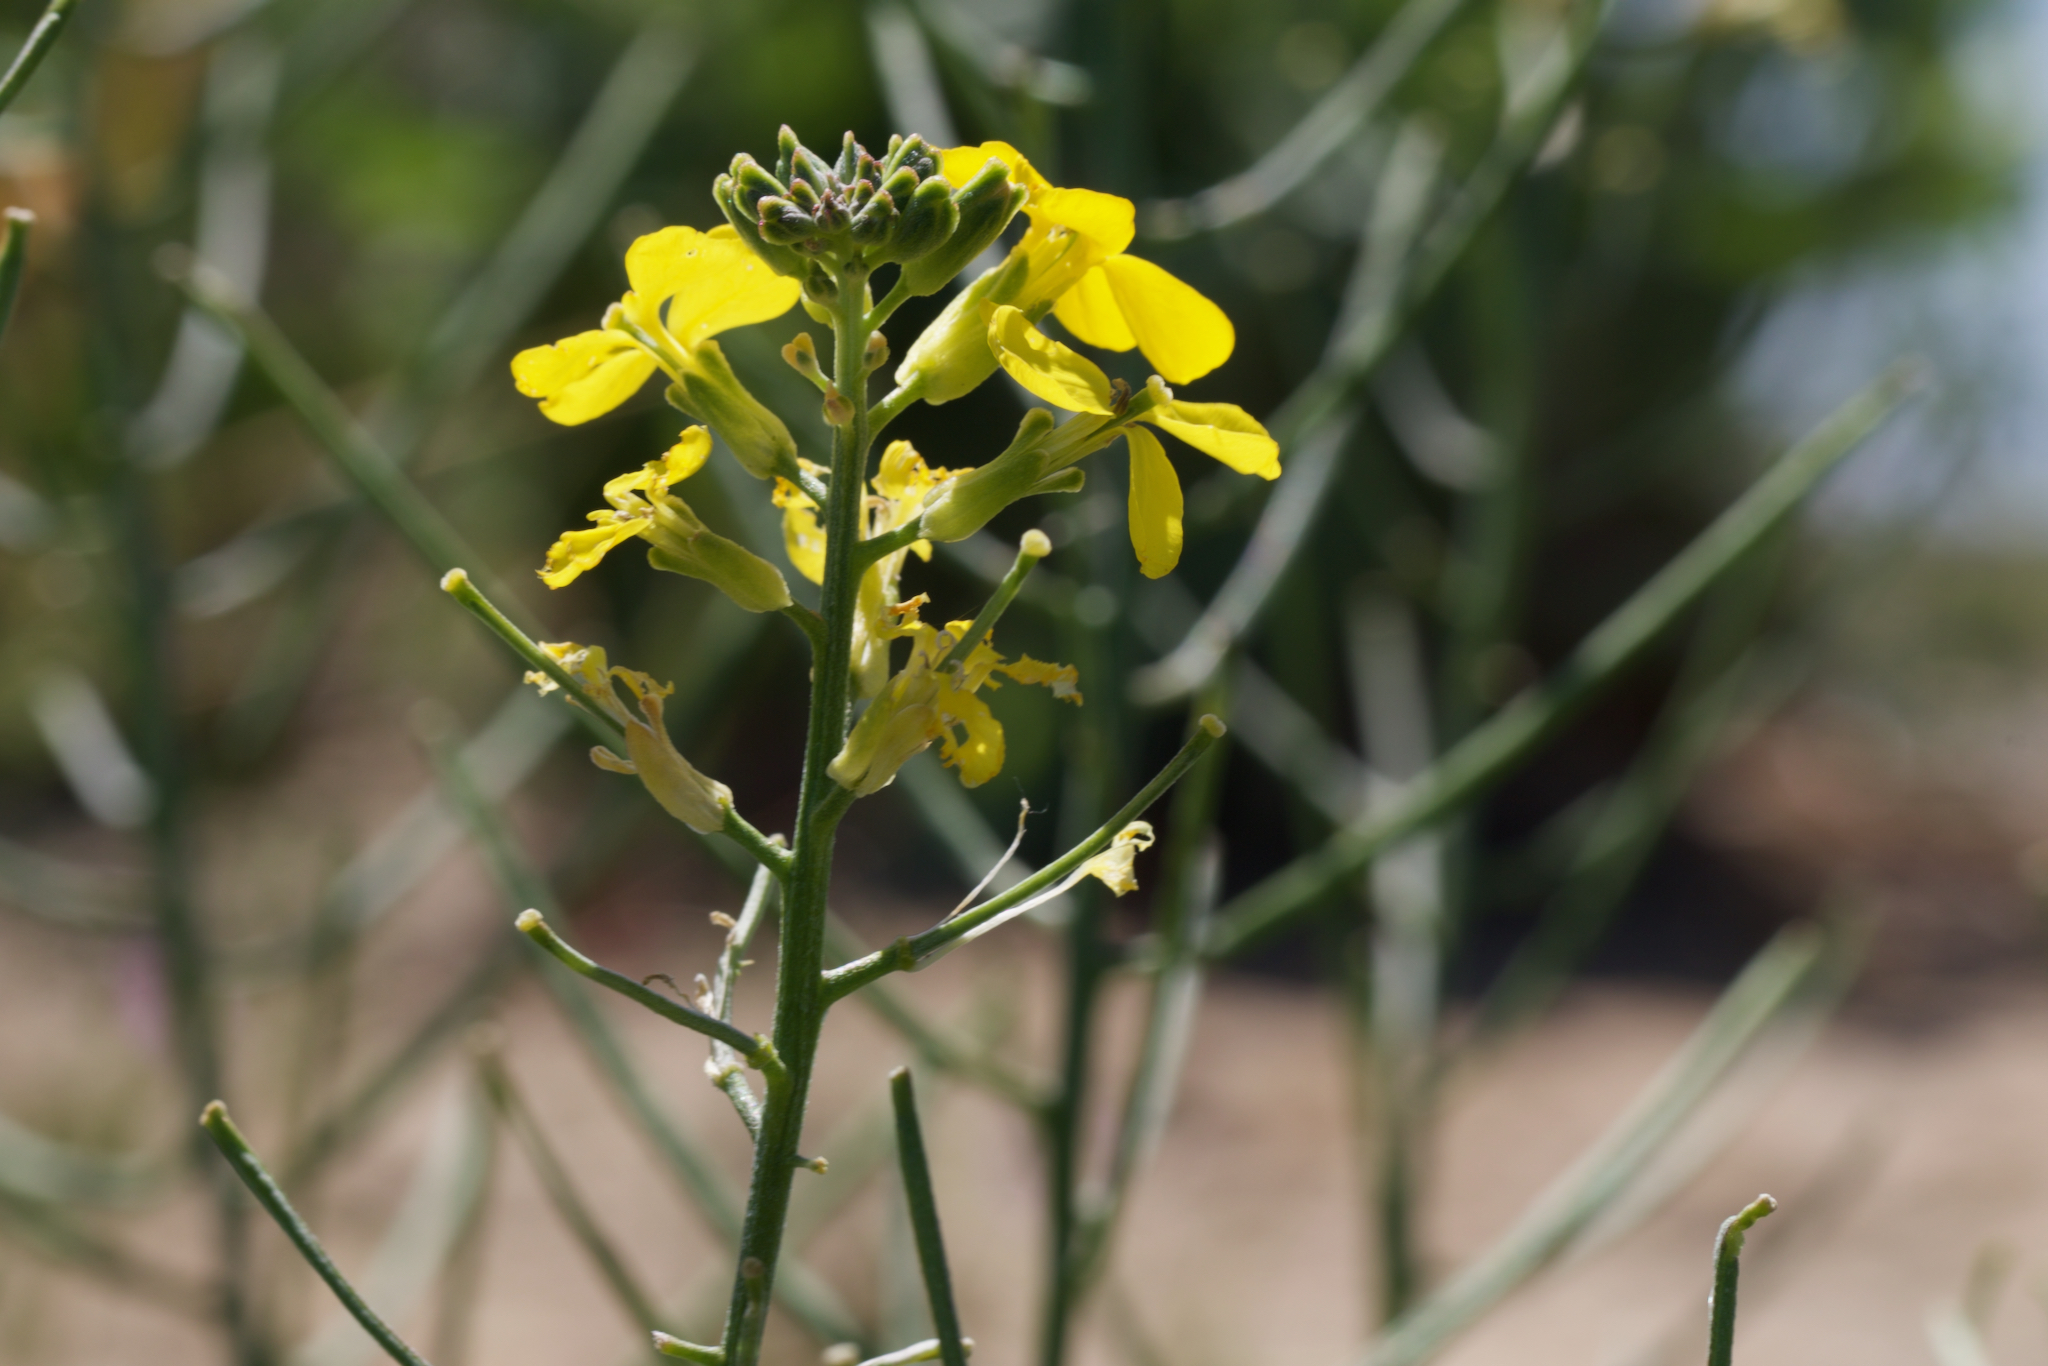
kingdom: Plantae
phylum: Tracheophyta
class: Magnoliopsida
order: Brassicales
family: Brassicaceae
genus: Erysimum
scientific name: Erysimum capitatum
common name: Western wallflower
